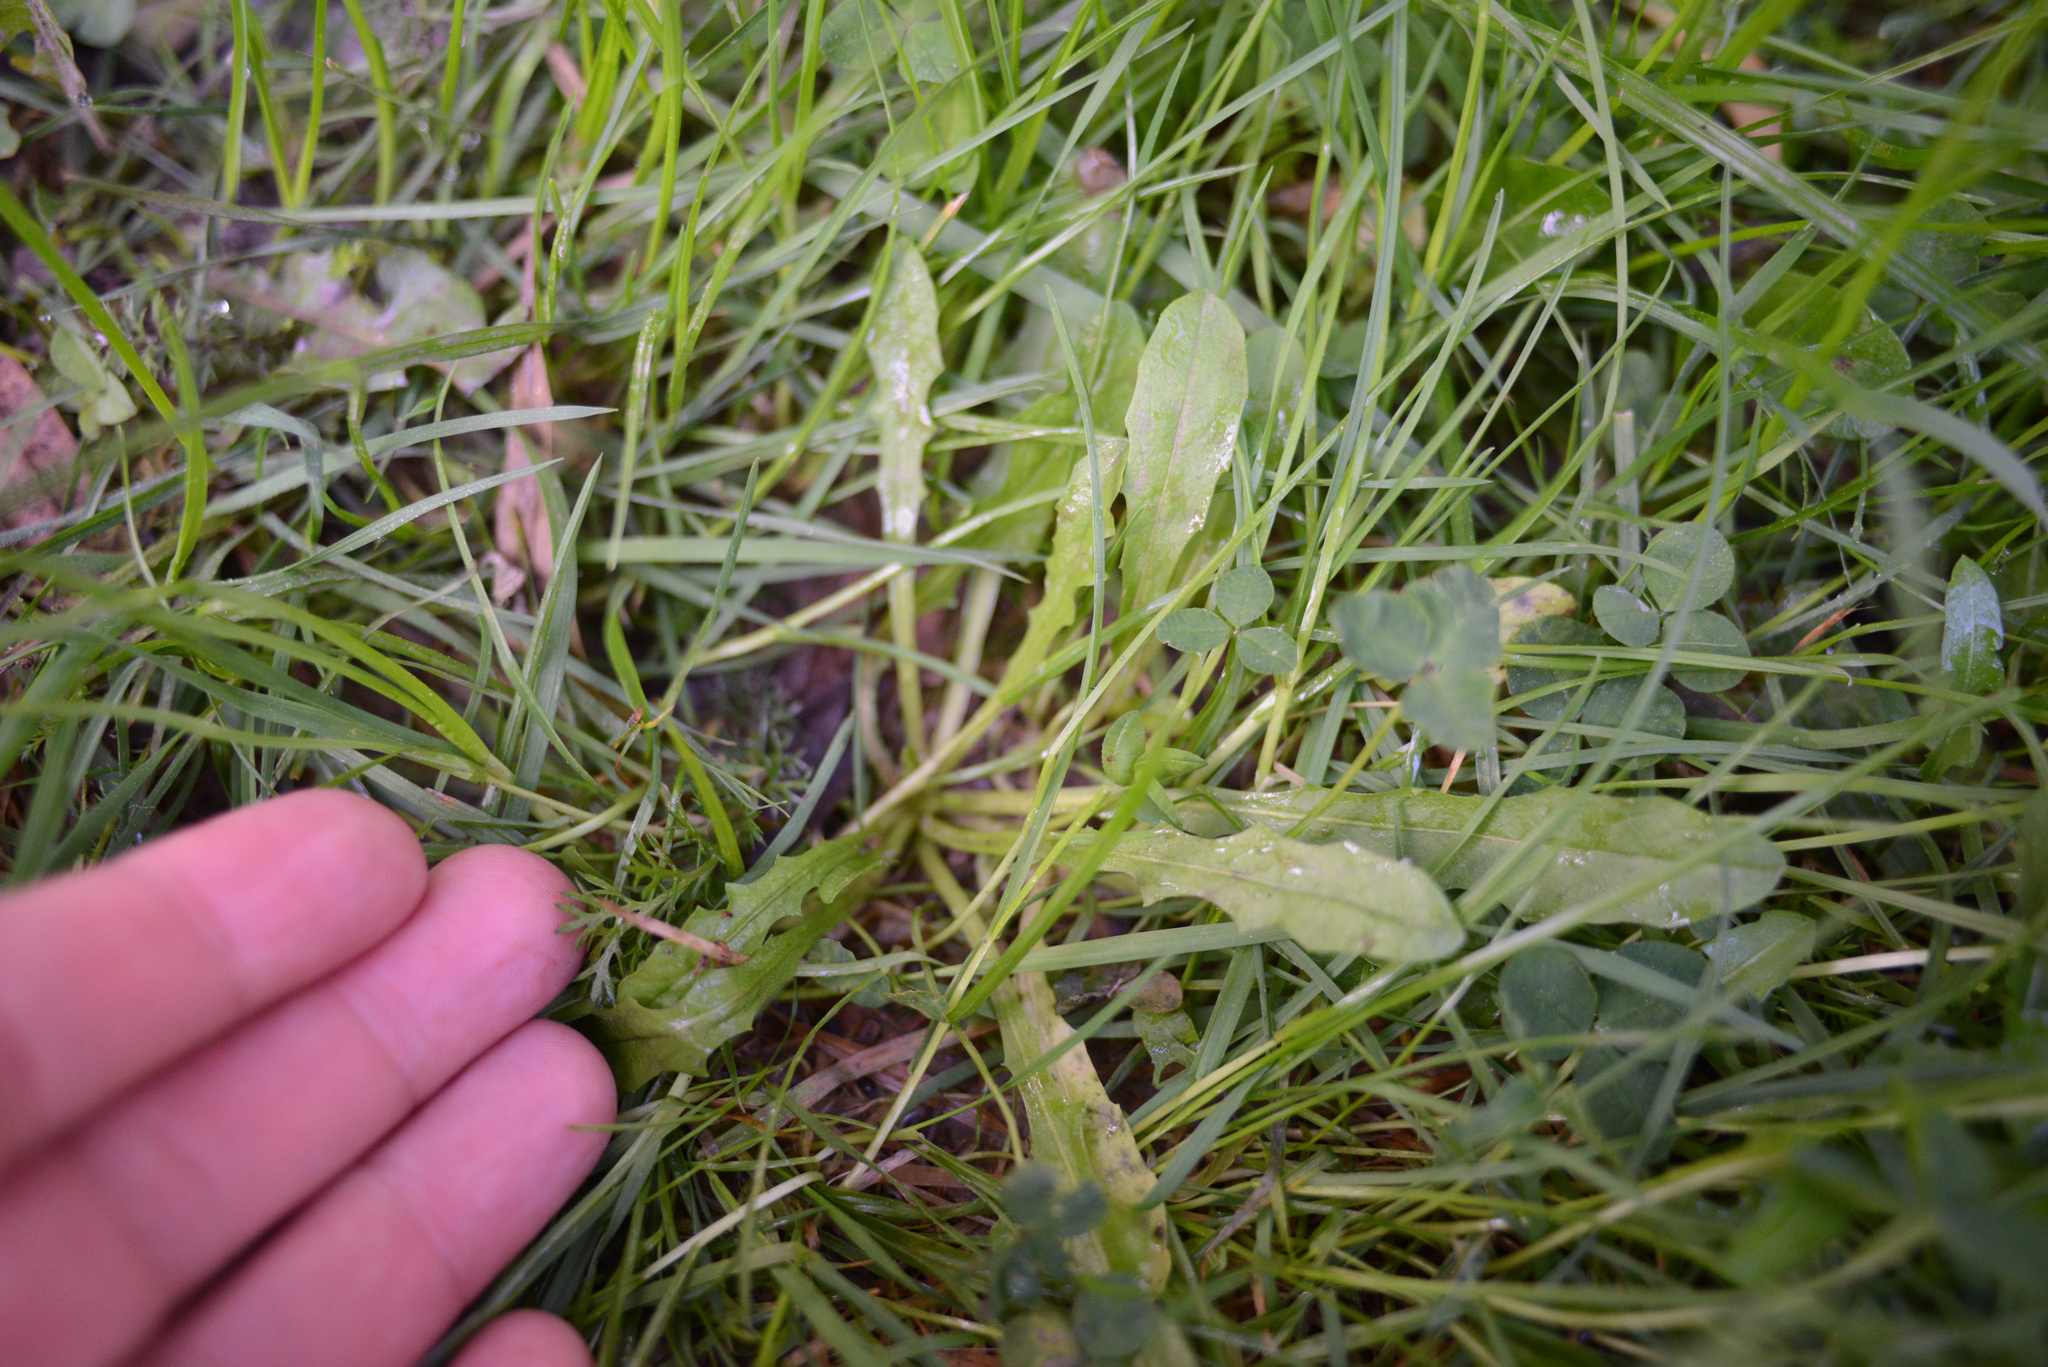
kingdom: Plantae
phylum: Tracheophyta
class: Magnoliopsida
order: Asterales
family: Asteraceae
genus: Crepis
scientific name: Crepis capillaris
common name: Smooth hawksbeard
